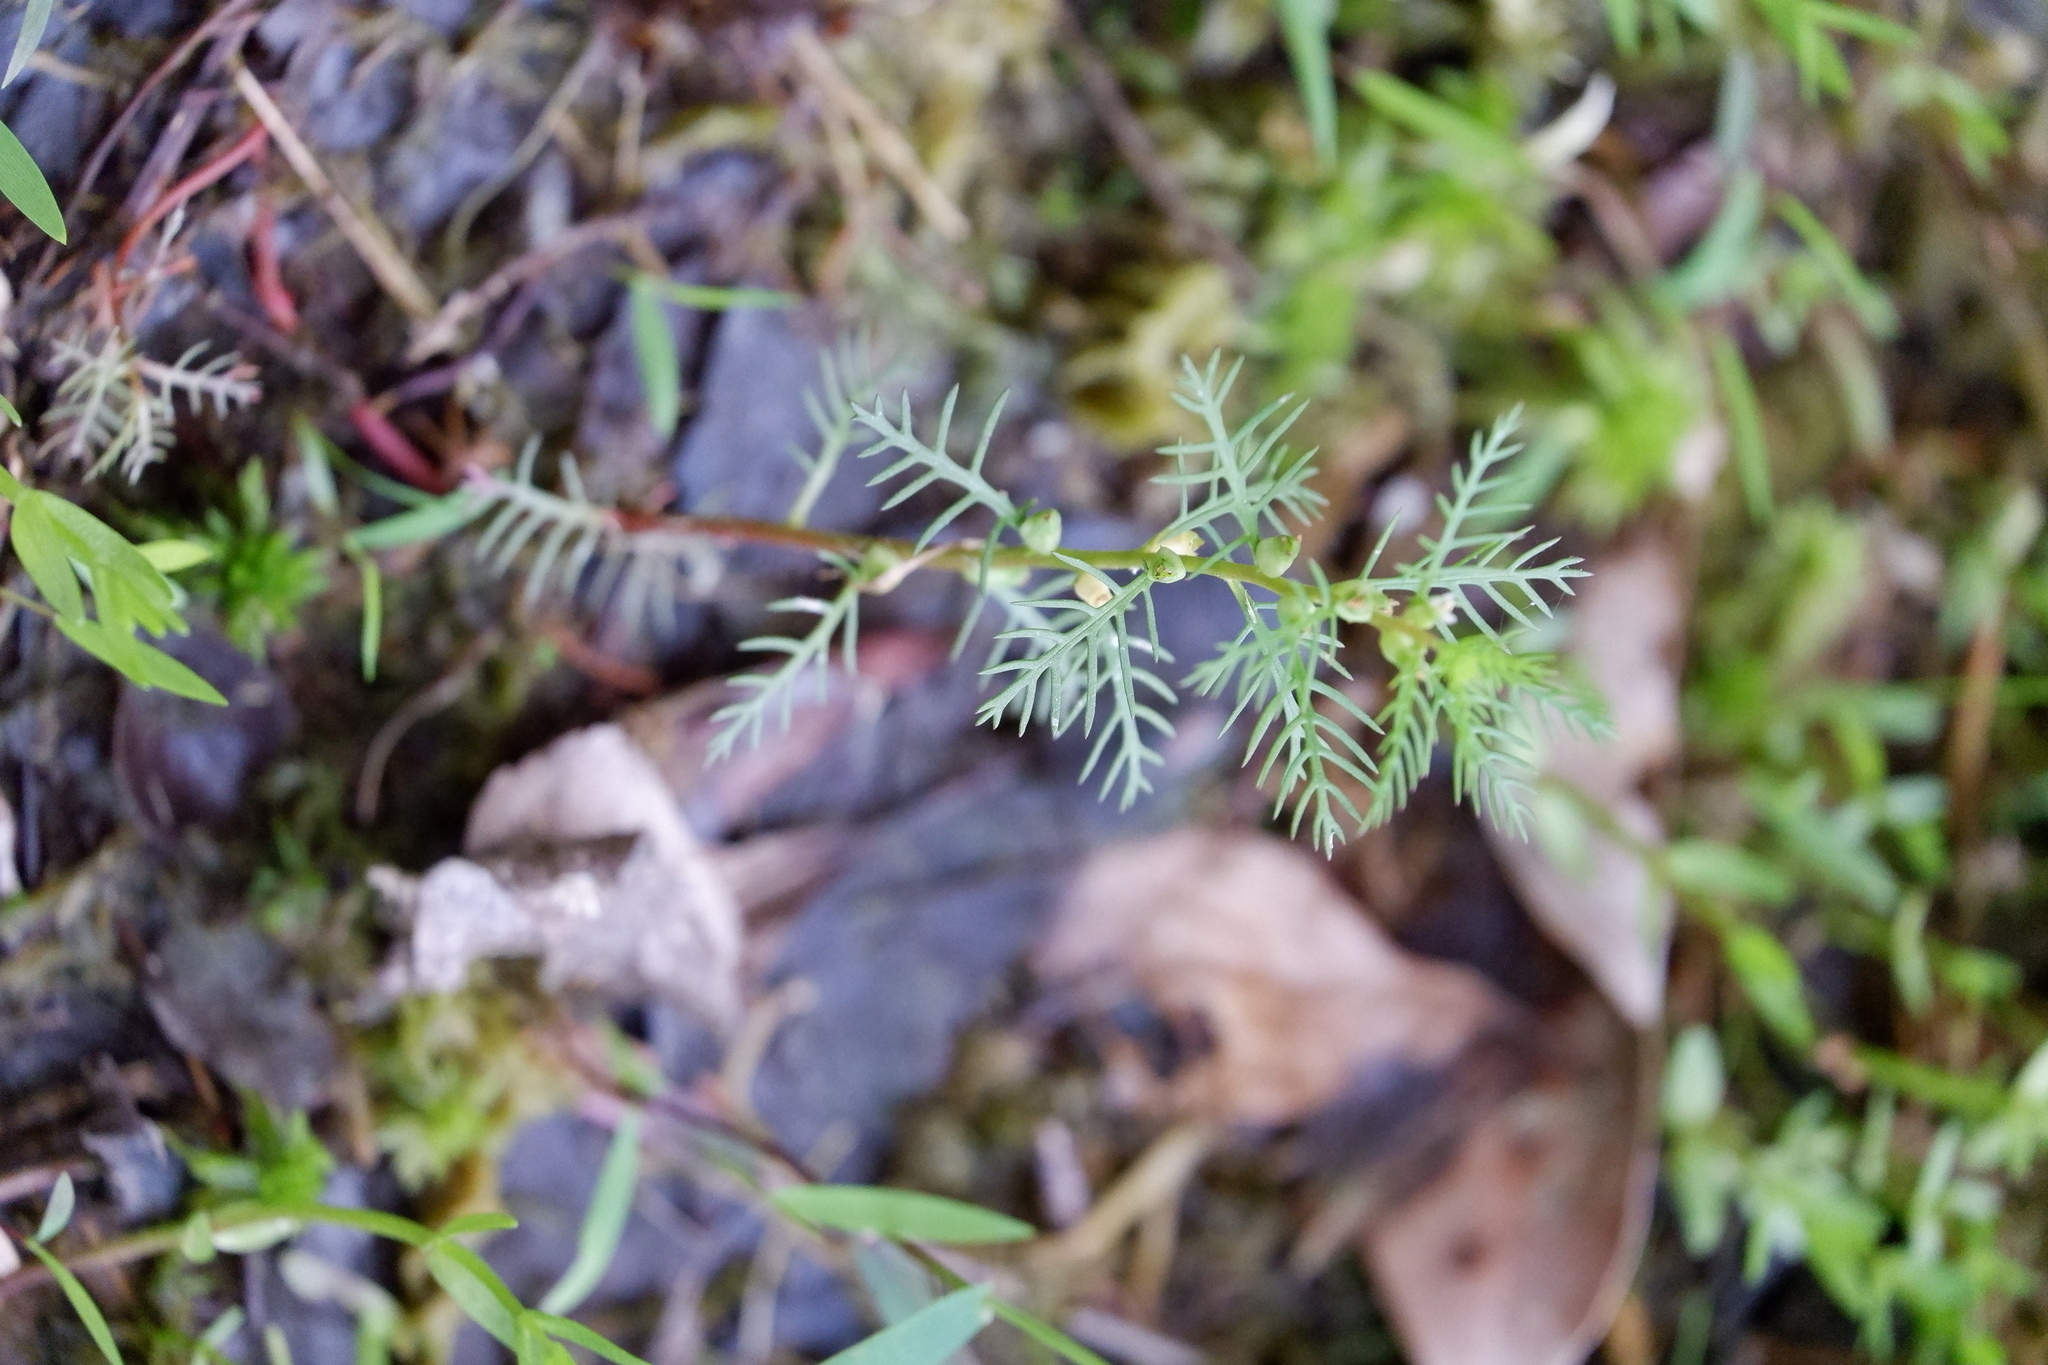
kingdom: Plantae
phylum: Tracheophyta
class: Magnoliopsida
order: Saxifragales
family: Haloragaceae
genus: Proserpinaca
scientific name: Proserpinaca pectinata
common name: Comb-leaved mermaidweed
